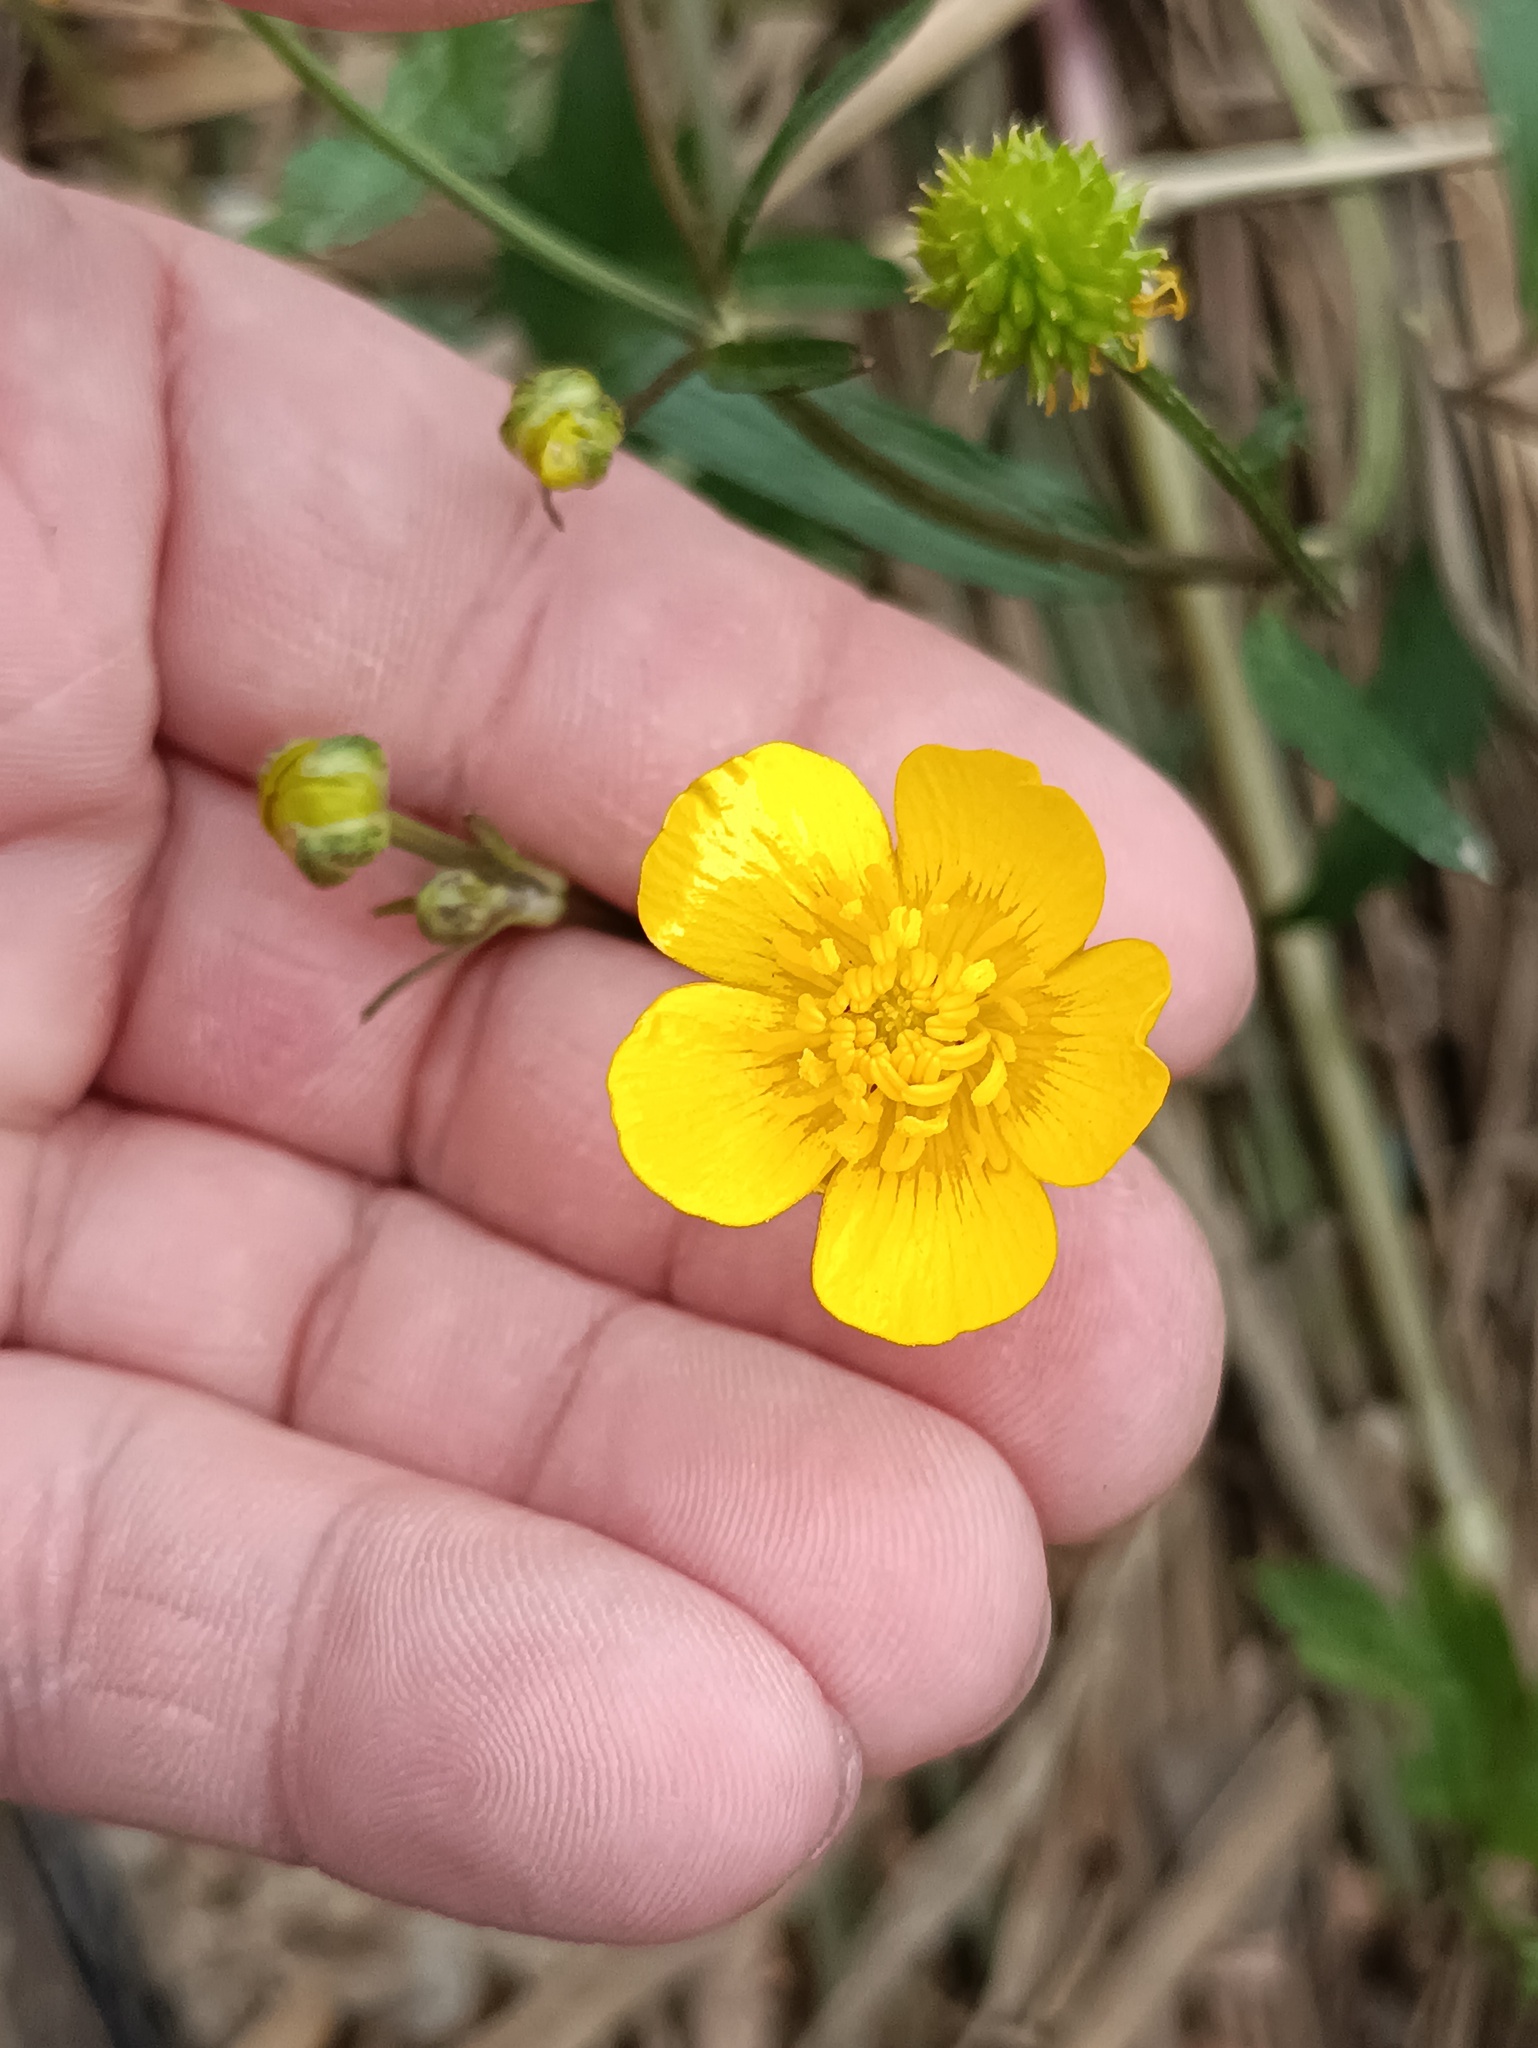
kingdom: Plantae
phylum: Tracheophyta
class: Magnoliopsida
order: Ranunculales
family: Ranunculaceae
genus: Ranunculus
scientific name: Ranunculus repens
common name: Creeping buttercup
